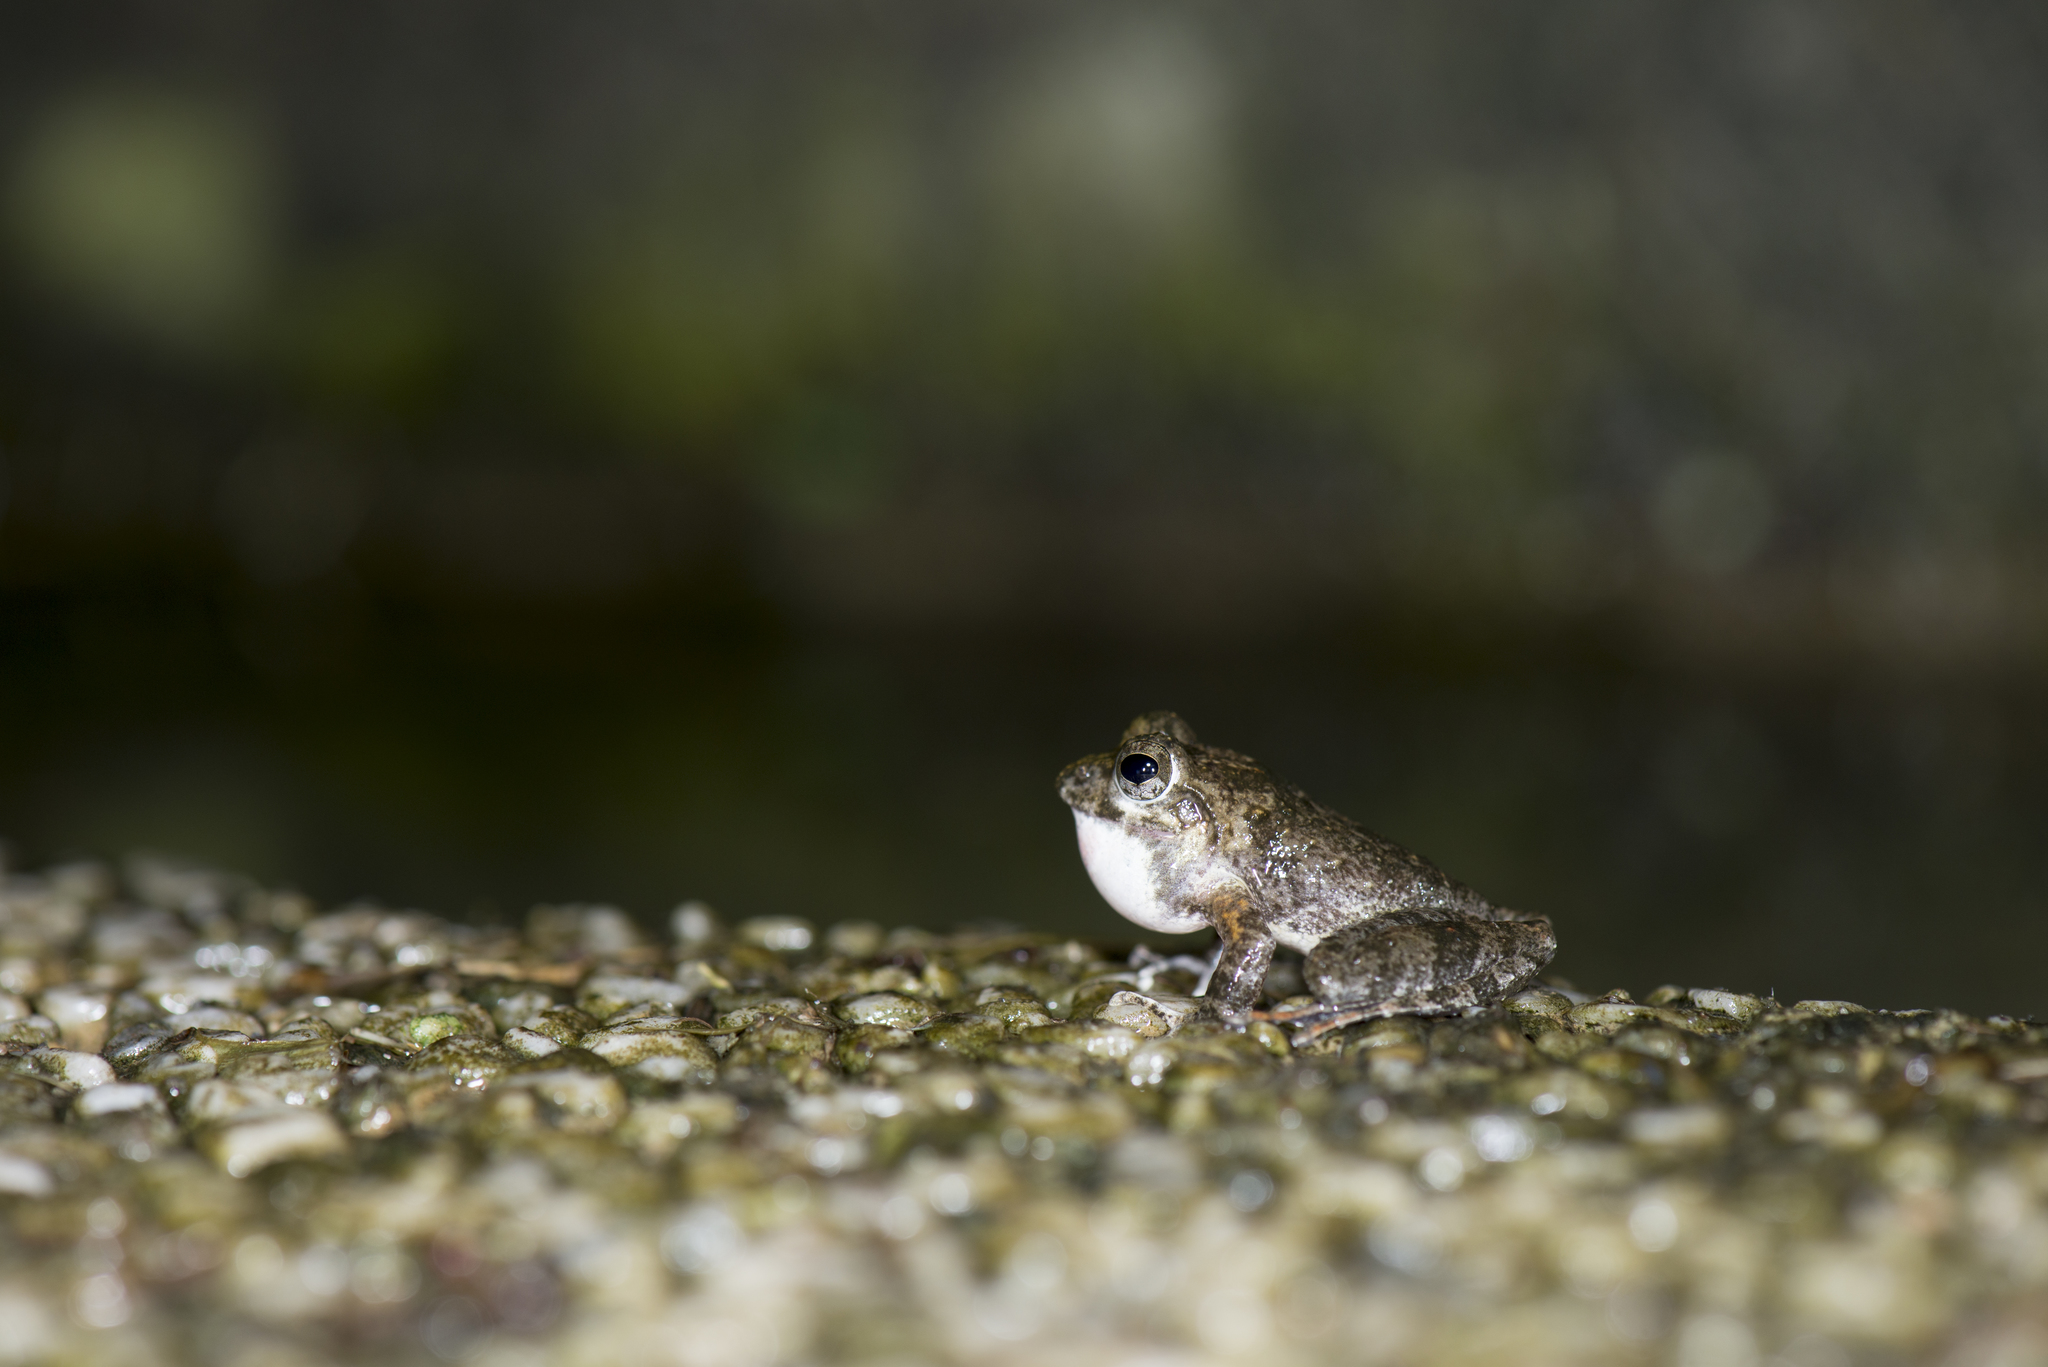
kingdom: Animalia
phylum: Chordata
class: Amphibia
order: Anura
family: Rhacophoridae
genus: Buergeria
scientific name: Buergeria otai
